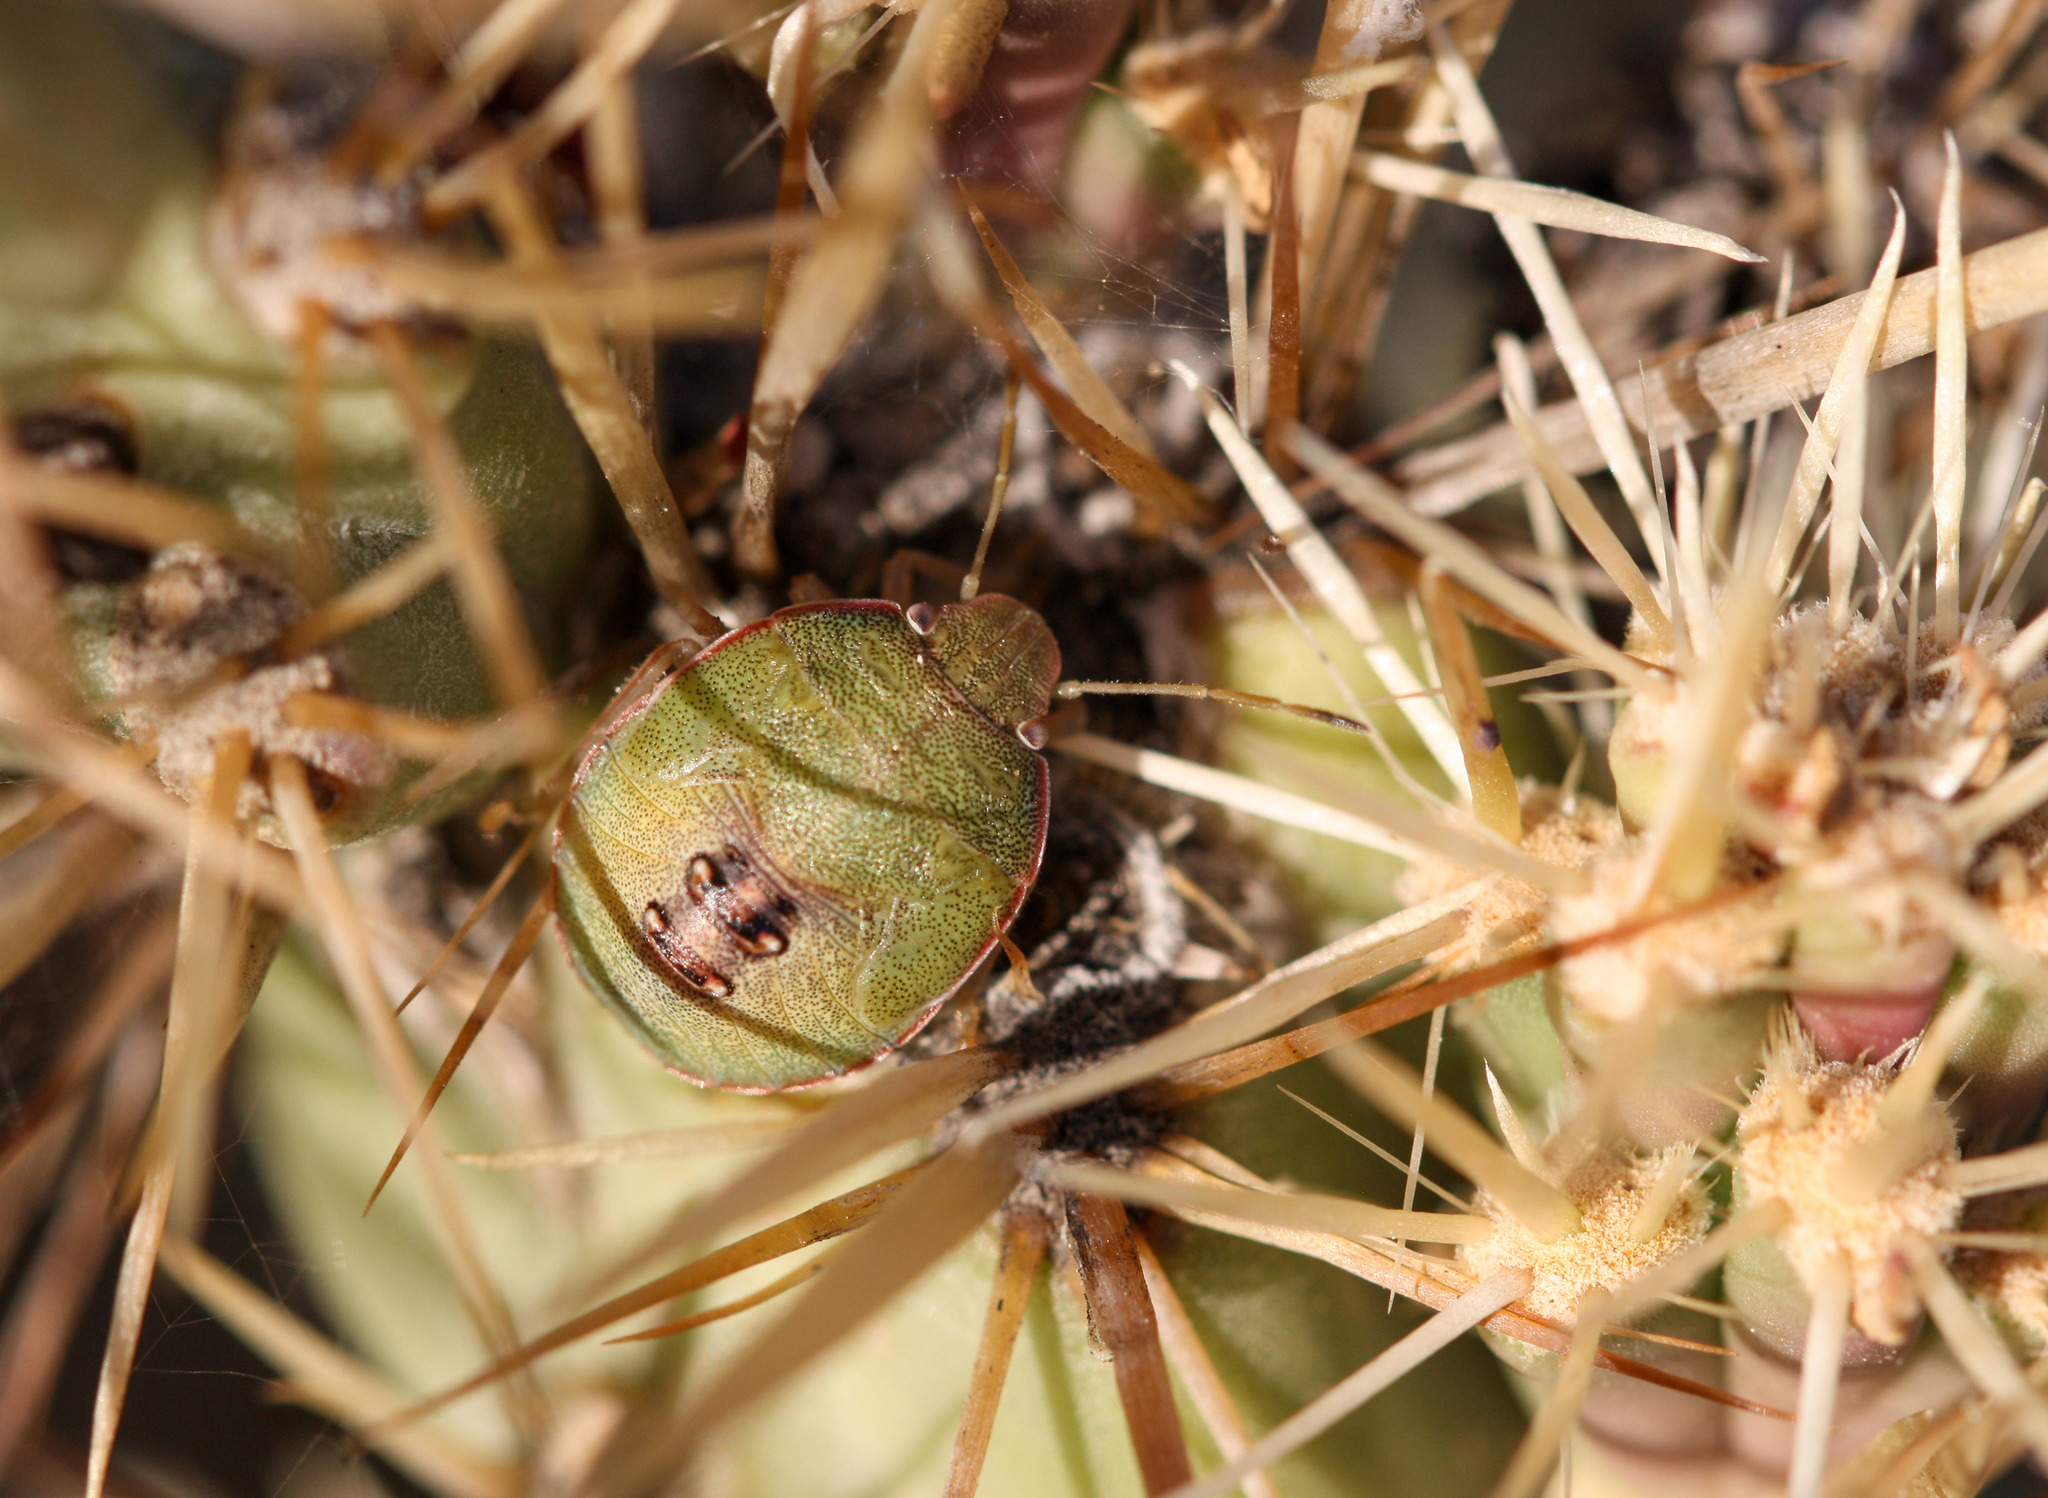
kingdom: Animalia
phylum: Arthropoda
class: Insecta
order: Hemiptera
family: Pentatomidae
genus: Chlorochroa
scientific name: Chlorochroa opuntiae
